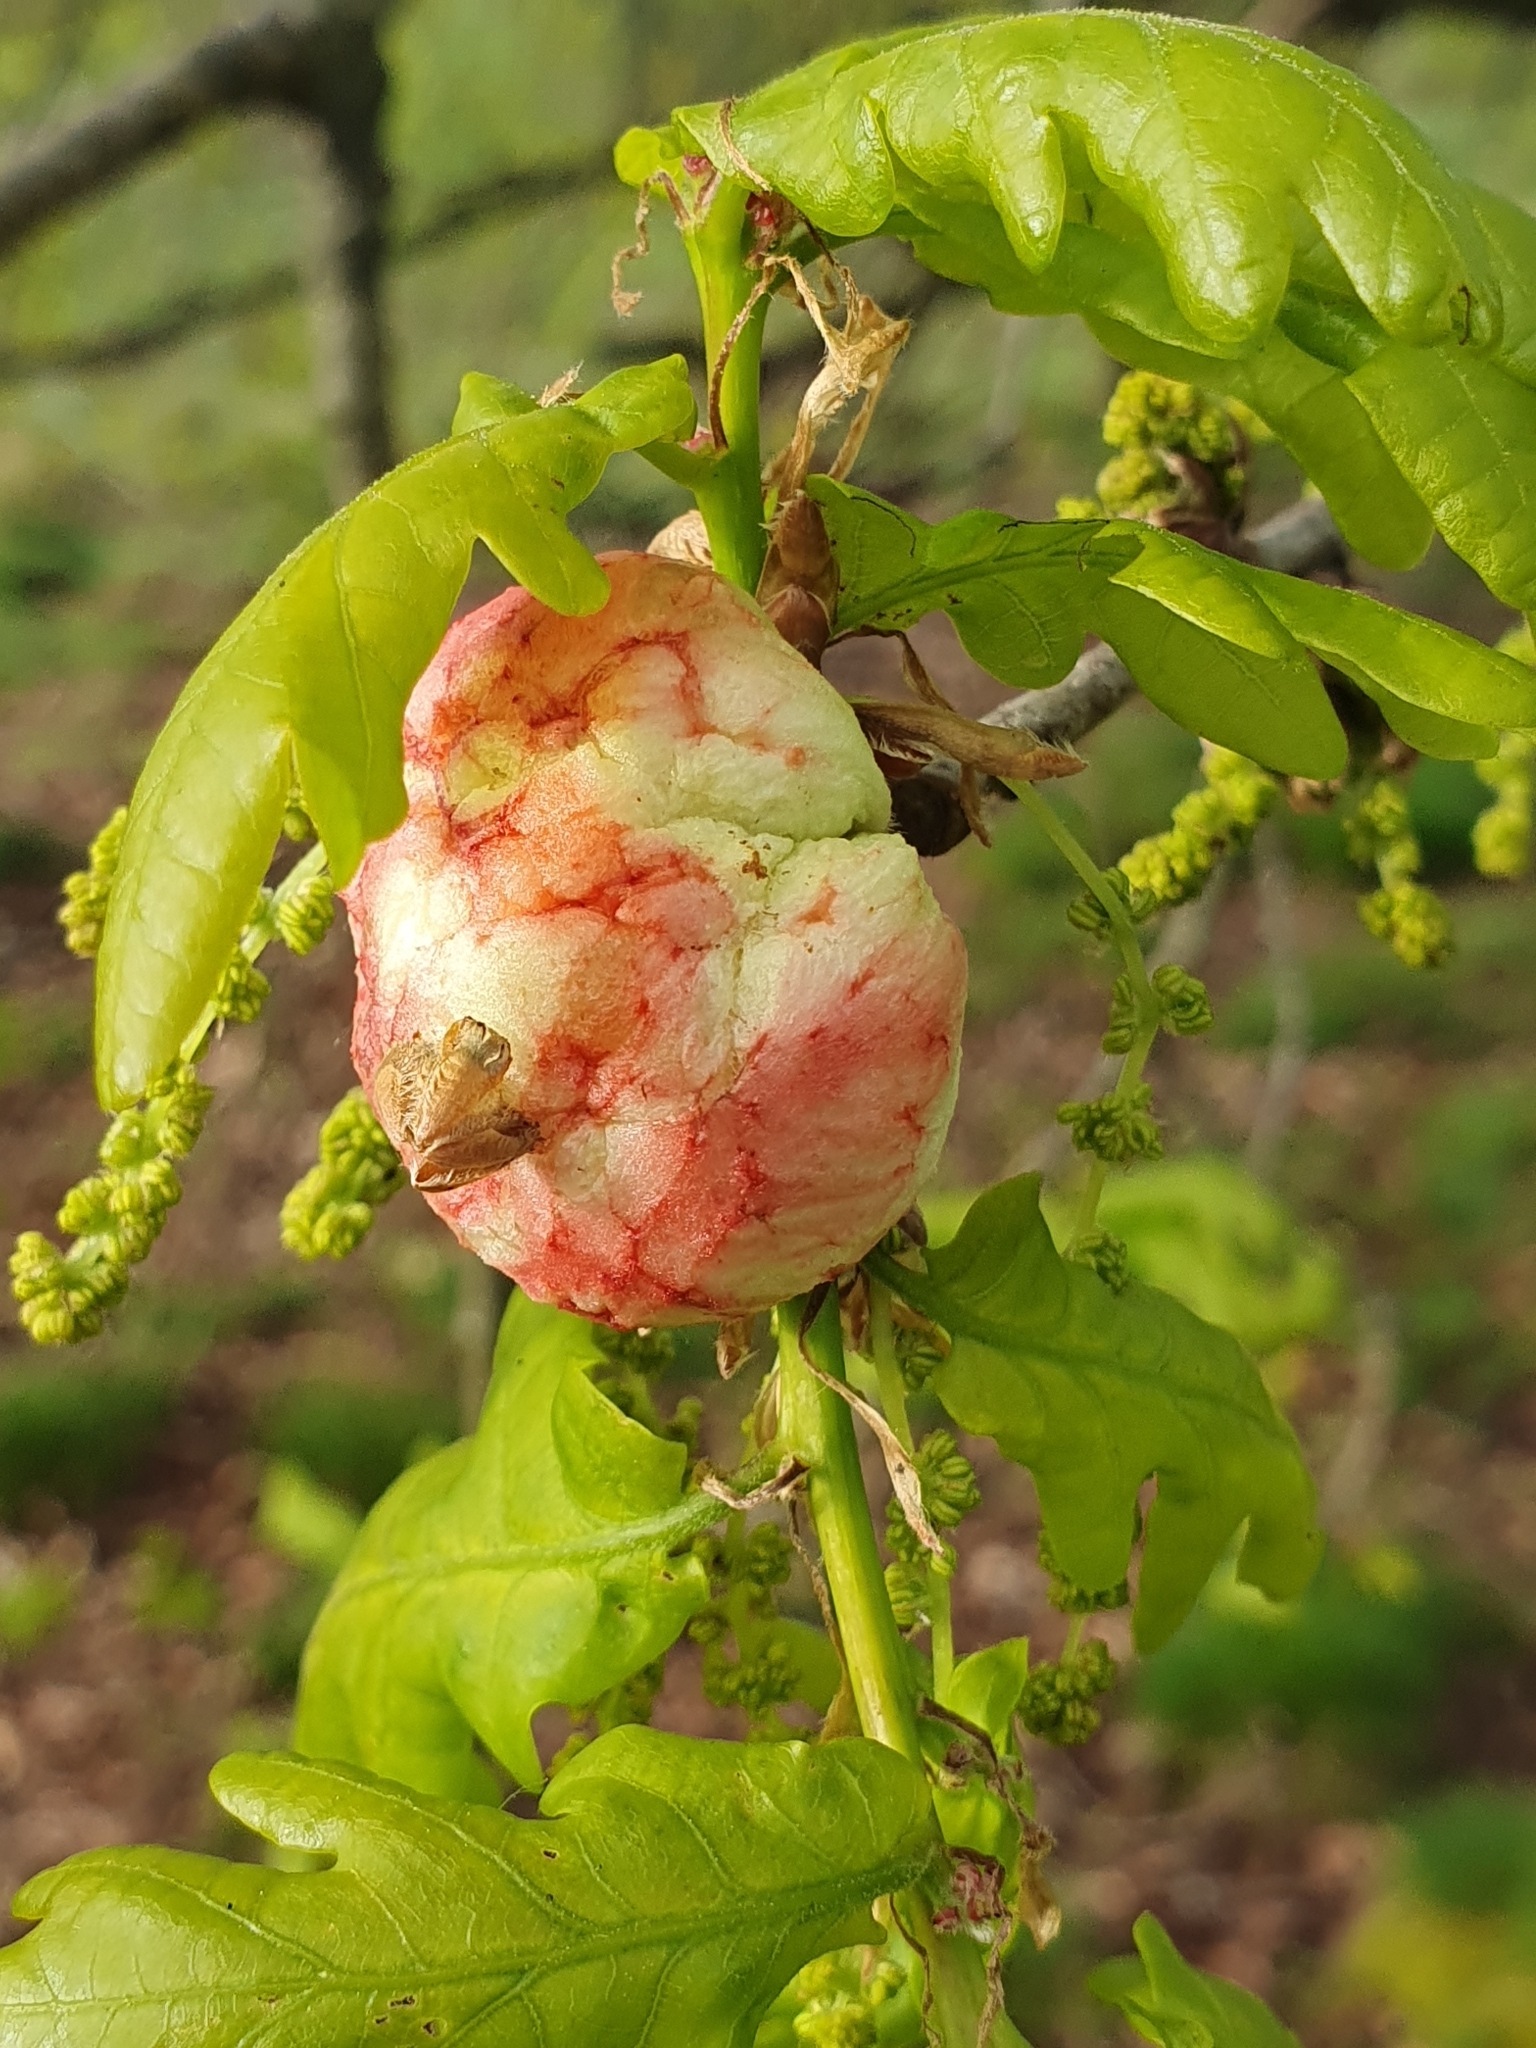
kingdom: Animalia
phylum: Arthropoda
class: Insecta
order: Hymenoptera
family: Cynipidae
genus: Biorhiza
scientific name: Biorhiza pallida
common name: Oak apple
